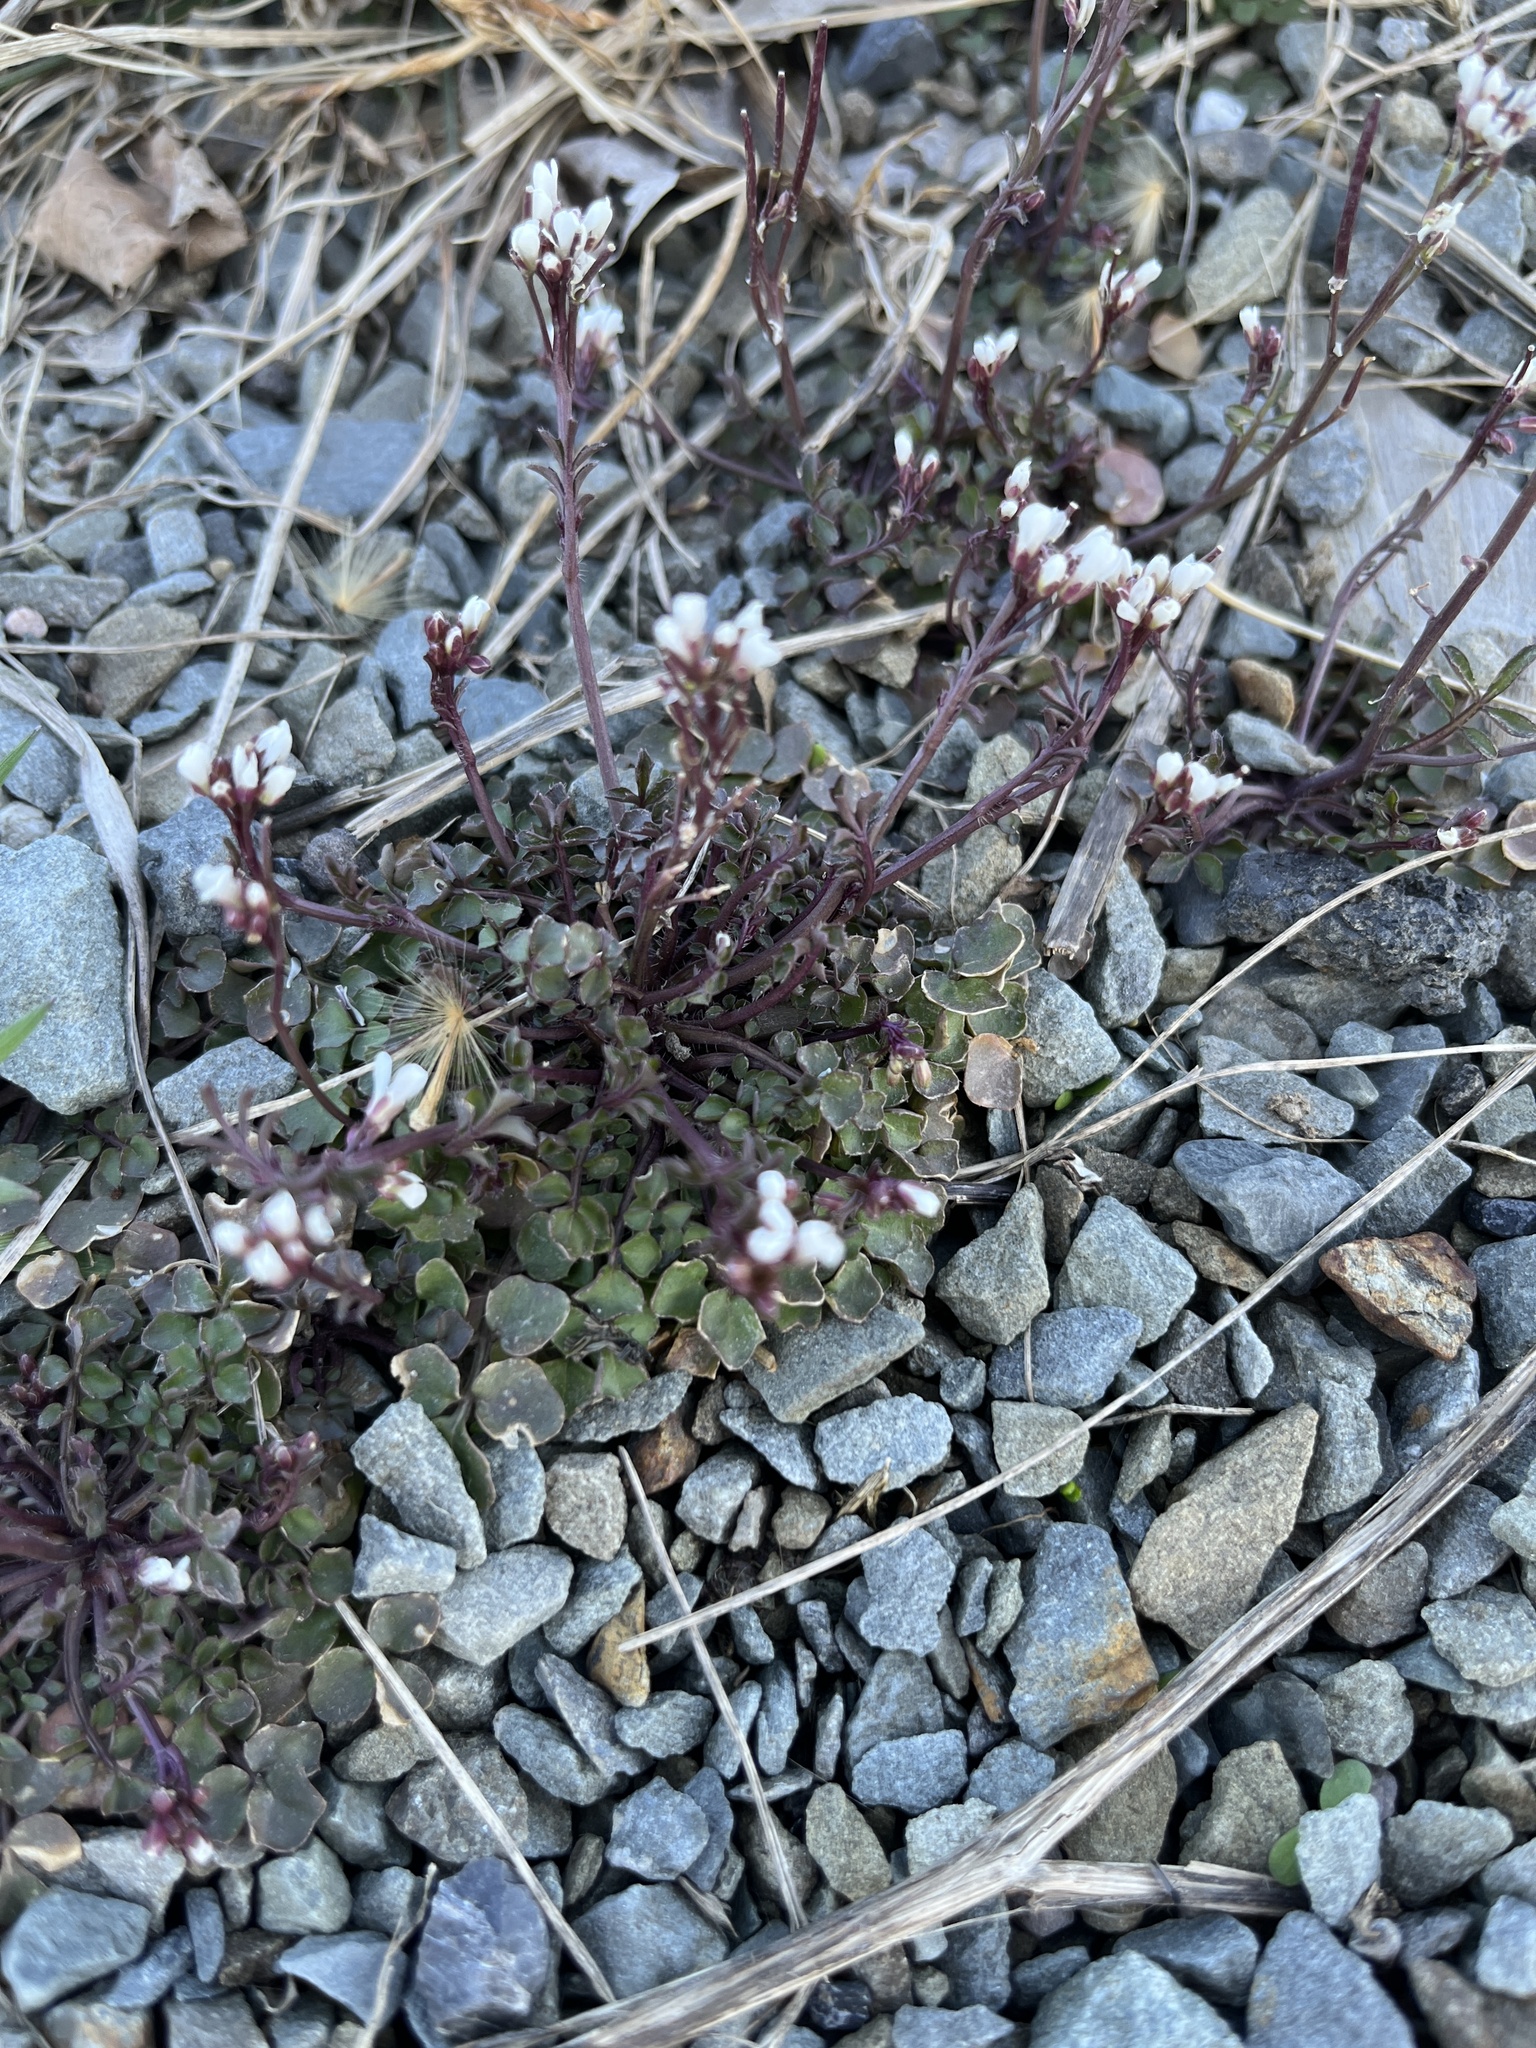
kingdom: Plantae
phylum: Tracheophyta
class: Magnoliopsida
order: Brassicales
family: Brassicaceae
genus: Cardamine
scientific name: Cardamine hirsuta
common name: Hairy bittercress
